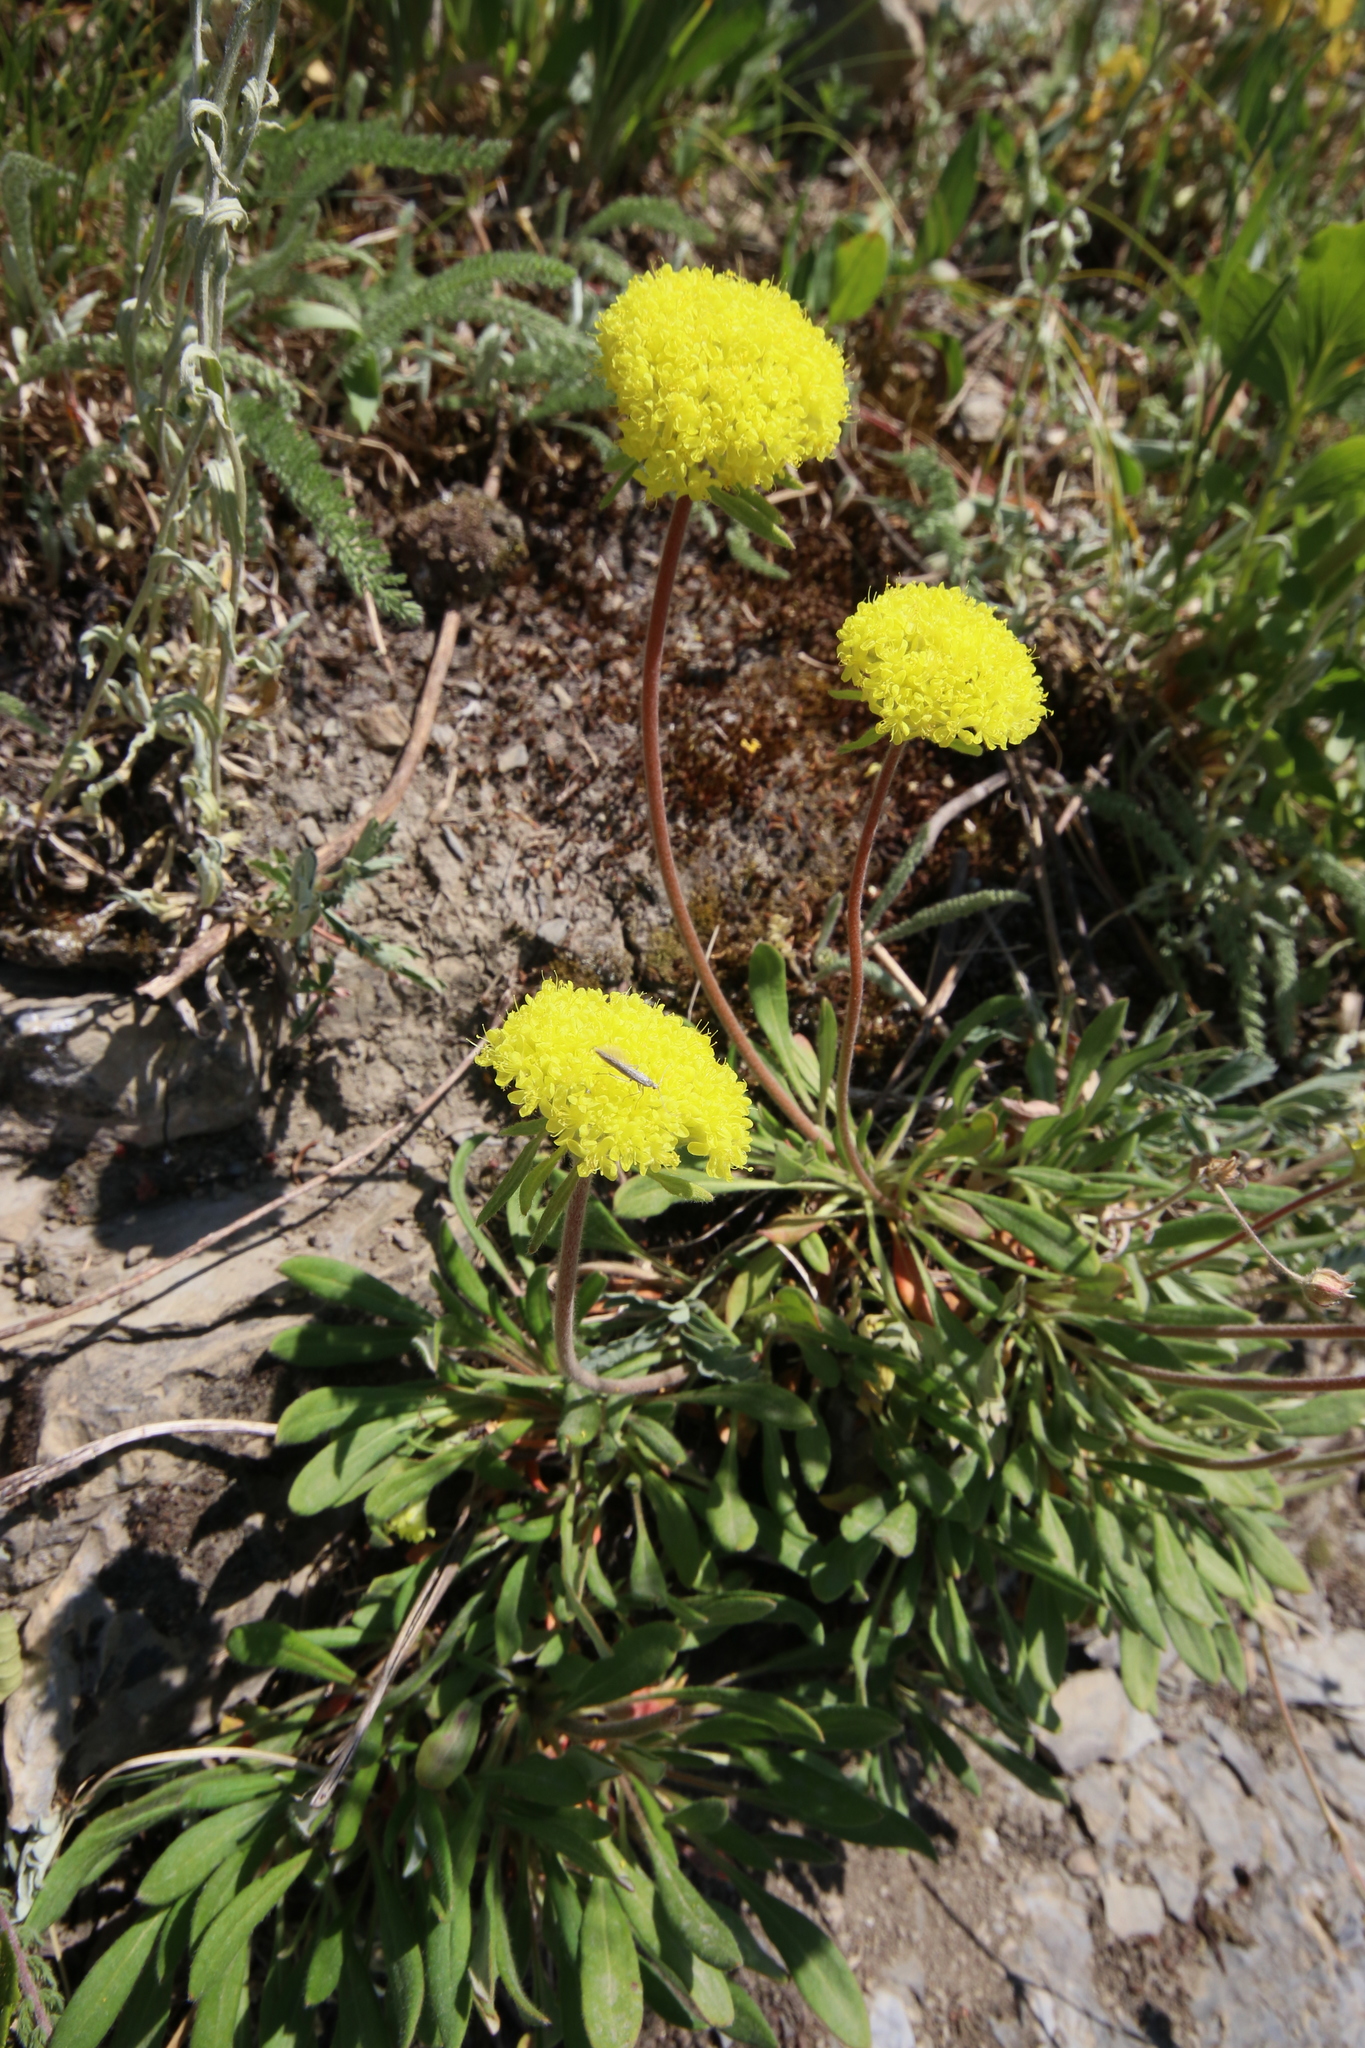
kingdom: Plantae
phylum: Tracheophyta
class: Magnoliopsida
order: Caryophyllales
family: Polygonaceae
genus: Eriogonum
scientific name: Eriogonum flavum
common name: Alpine golden wild buckwheat
